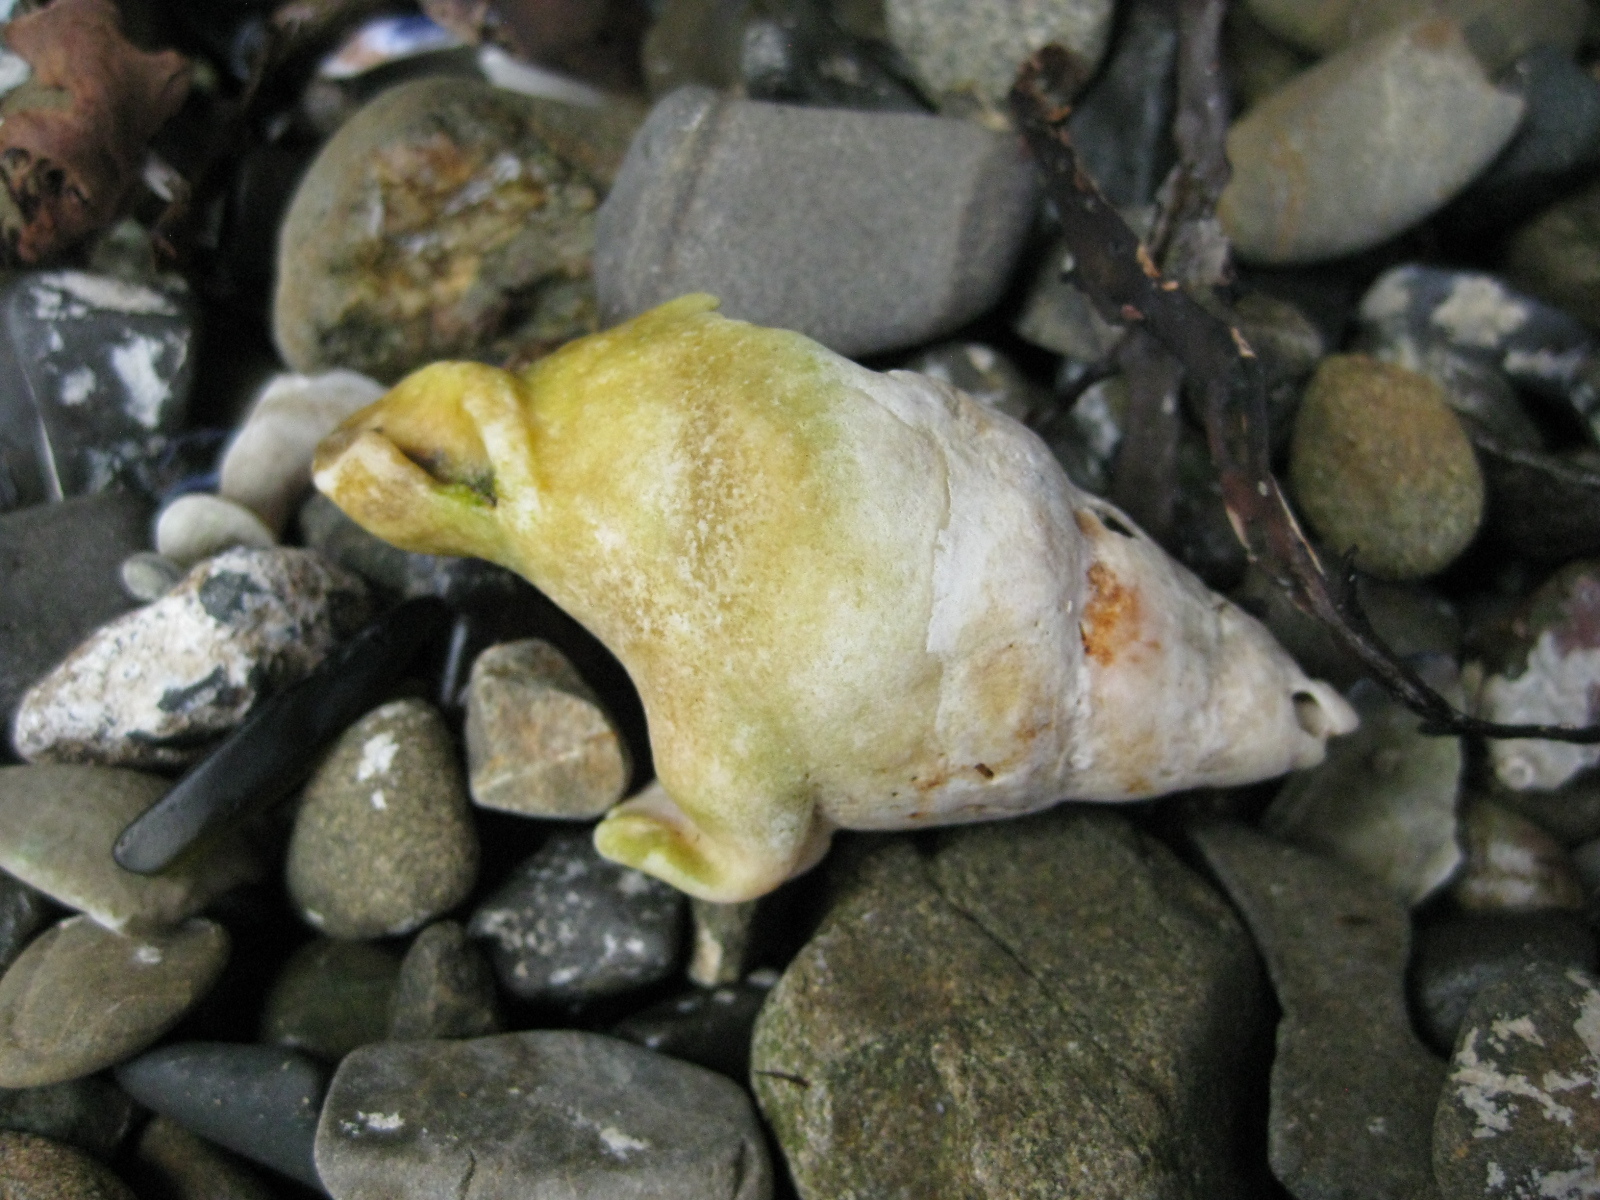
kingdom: Animalia
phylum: Mollusca
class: Gastropoda
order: Neogastropoda
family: Cominellidae
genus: Cominella
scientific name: Cominella adspersa
